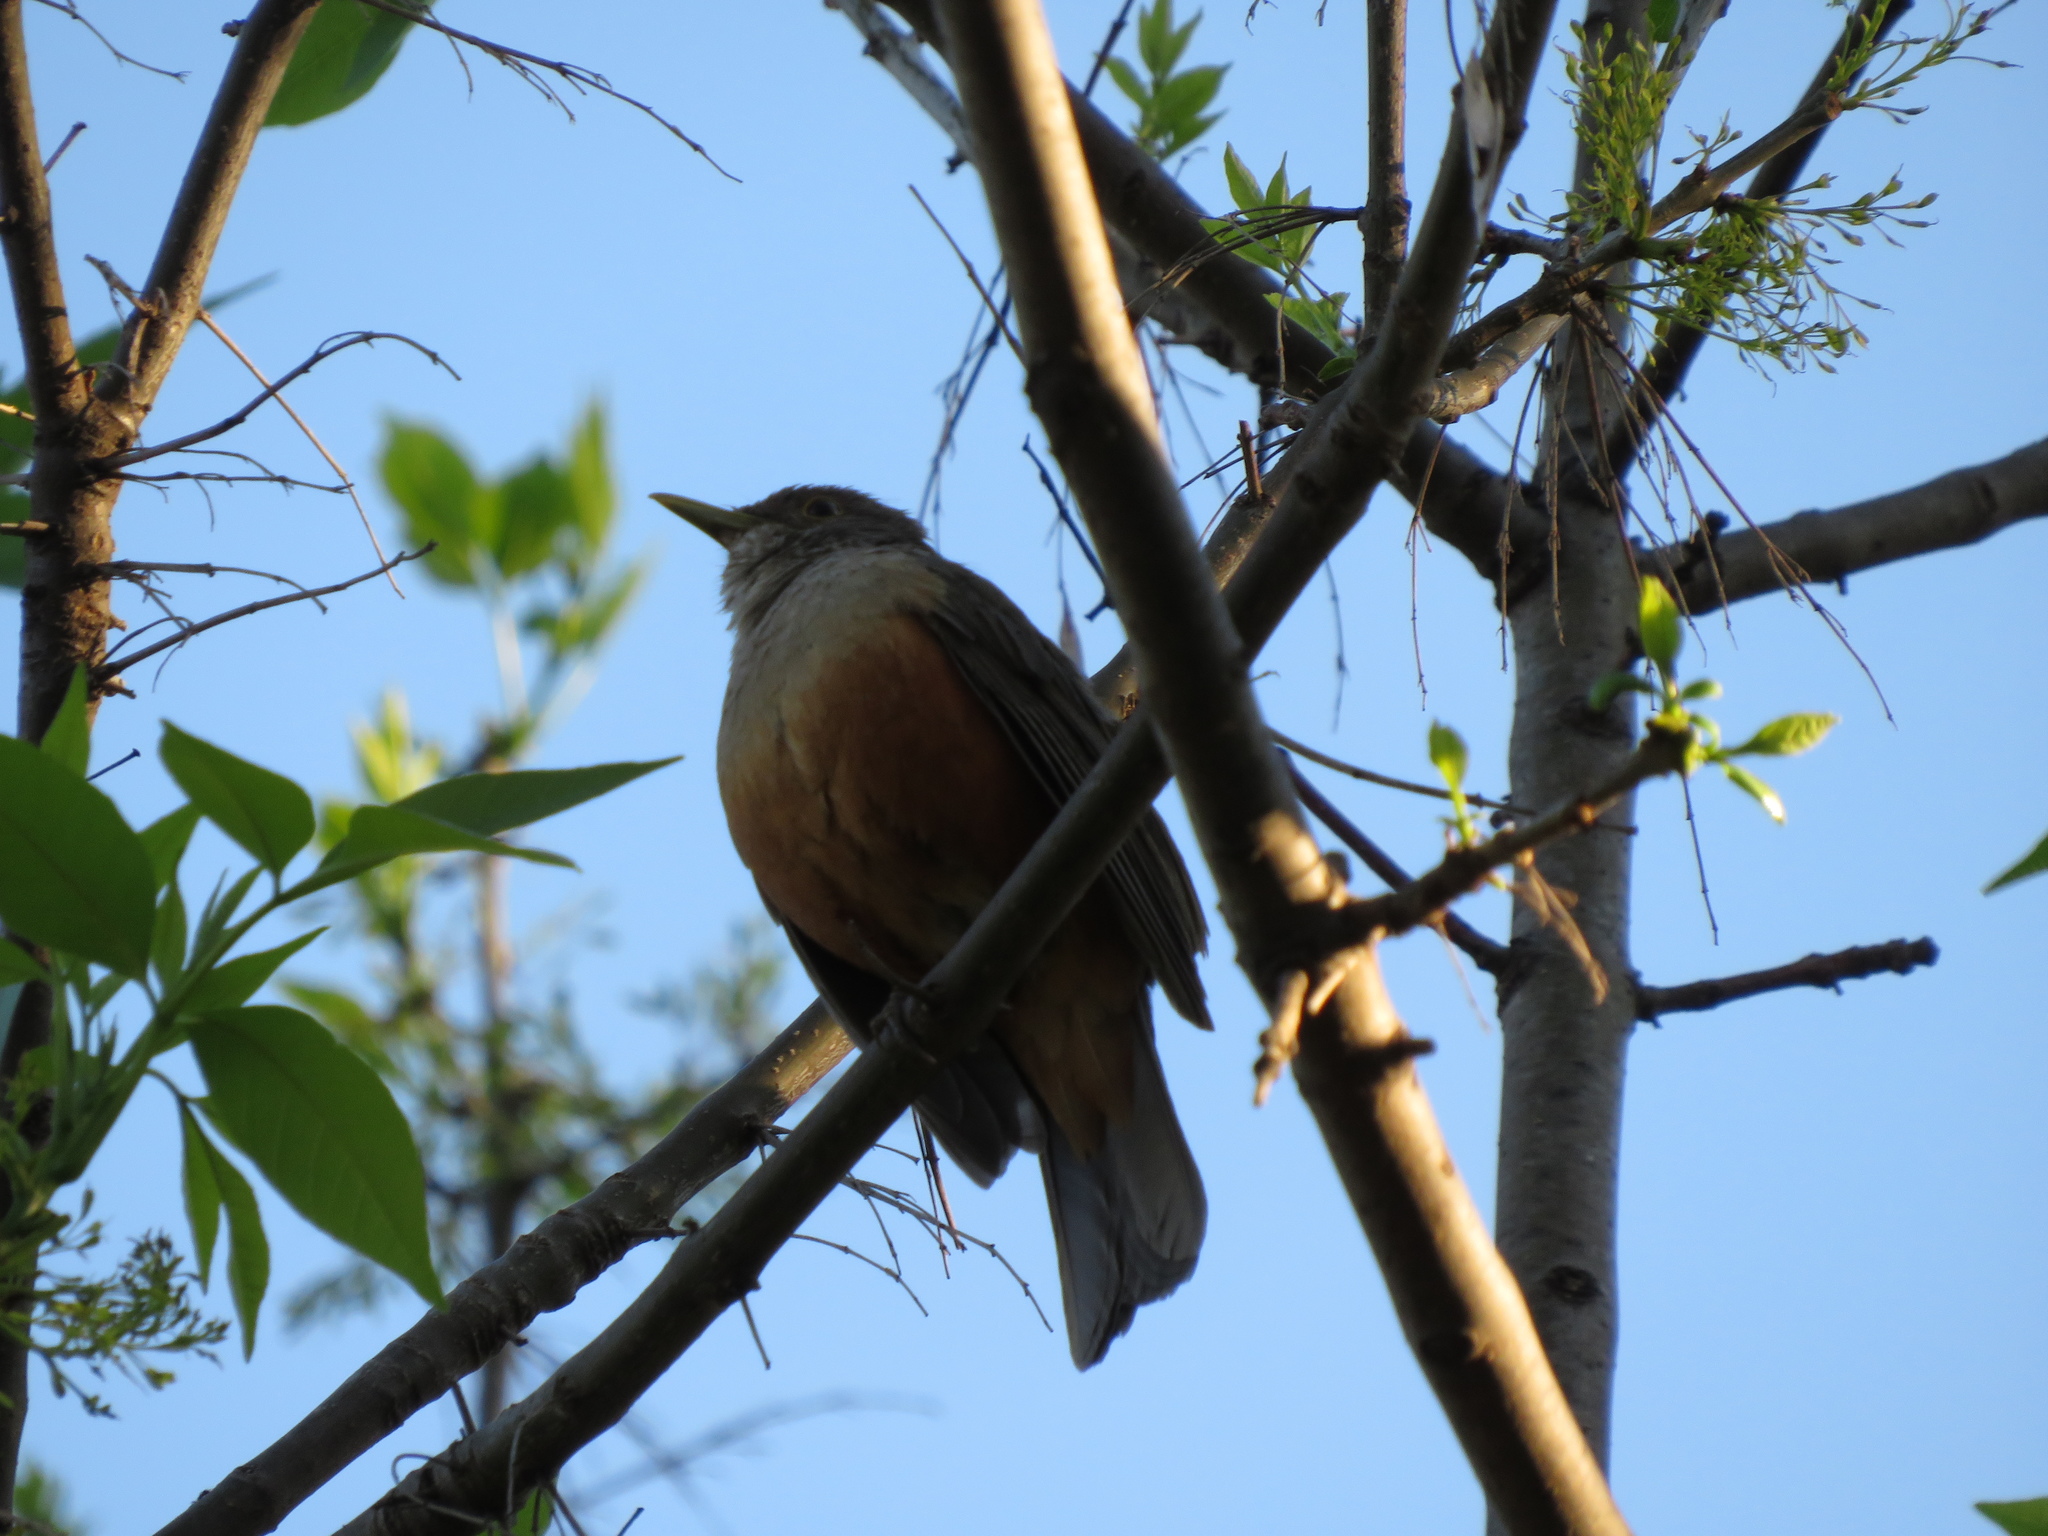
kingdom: Animalia
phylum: Chordata
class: Aves
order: Passeriformes
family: Turdidae
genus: Turdus
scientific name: Turdus rufiventris
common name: Rufous-bellied thrush
